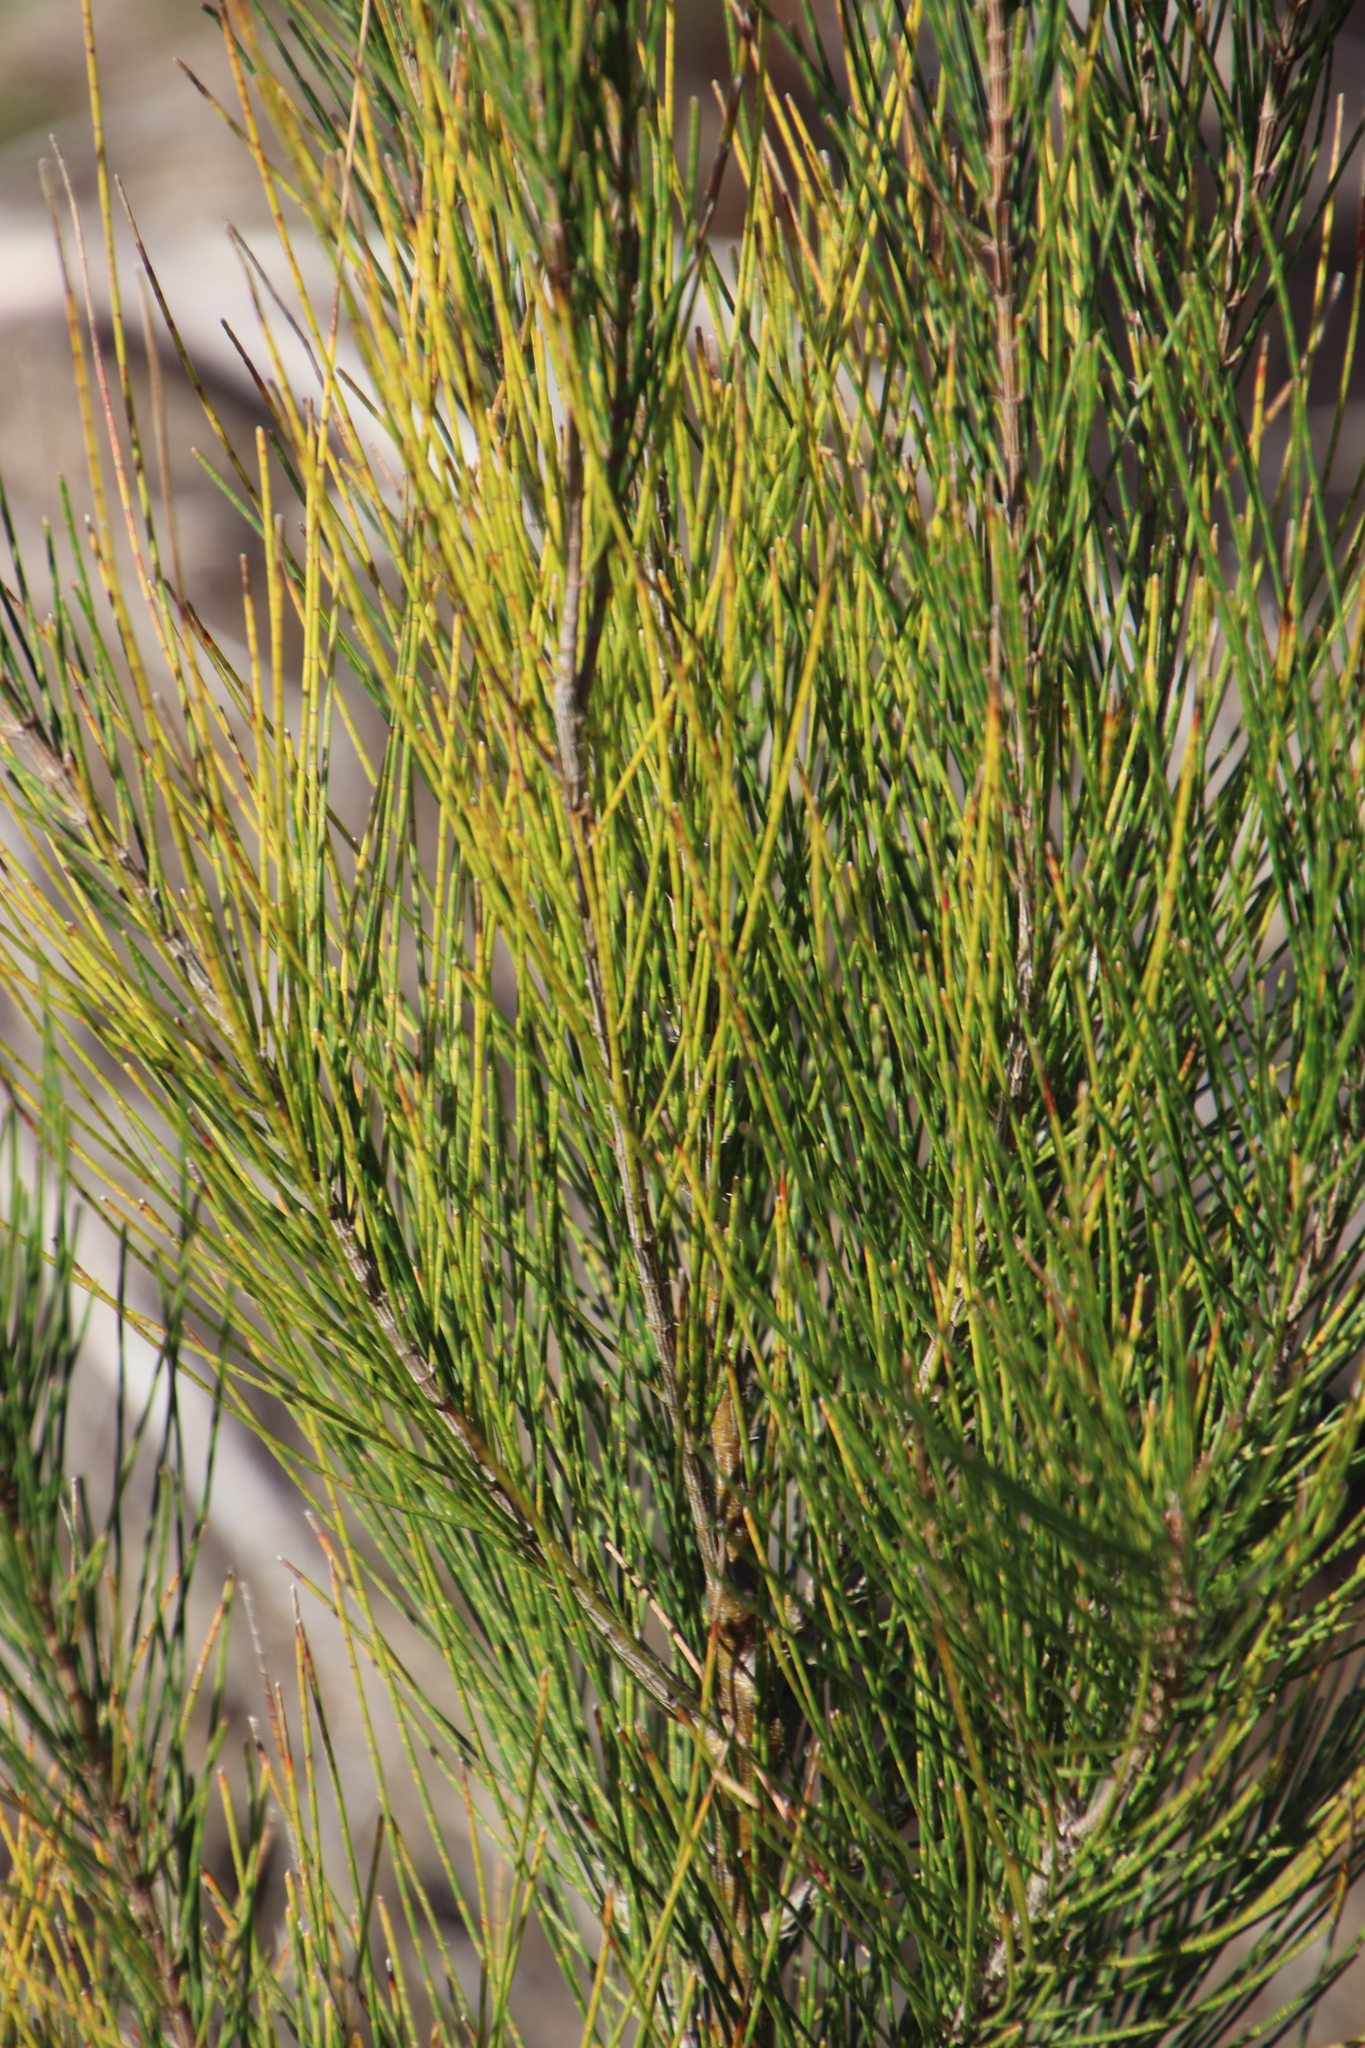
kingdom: Plantae
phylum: Tracheophyta
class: Magnoliopsida
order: Fagales
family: Casuarinaceae
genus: Casuarina
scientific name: Casuarina cunninghamiana
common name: River sheoak
